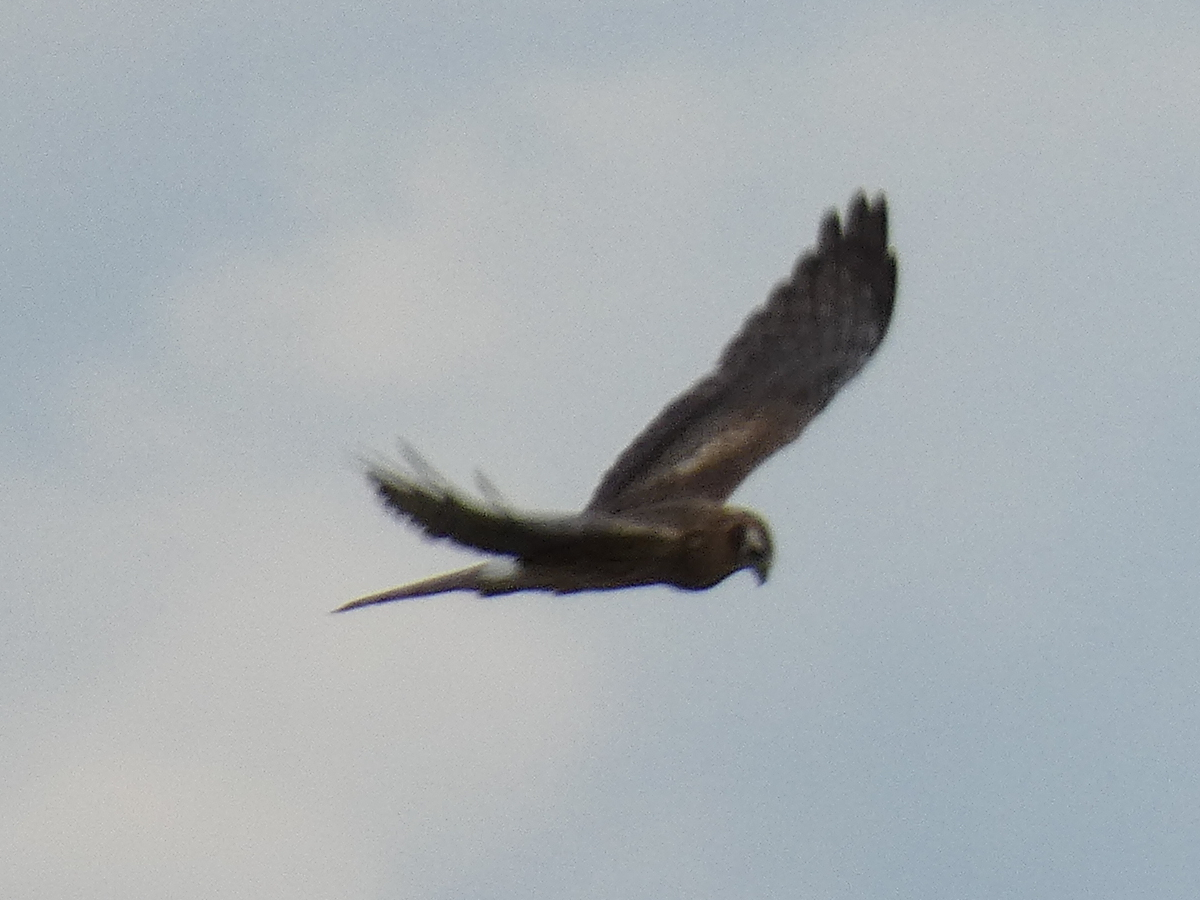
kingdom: Animalia
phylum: Chordata
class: Aves
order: Accipitriformes
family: Accipitridae
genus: Circus
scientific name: Circus pygargus
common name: Montagu's harrier
